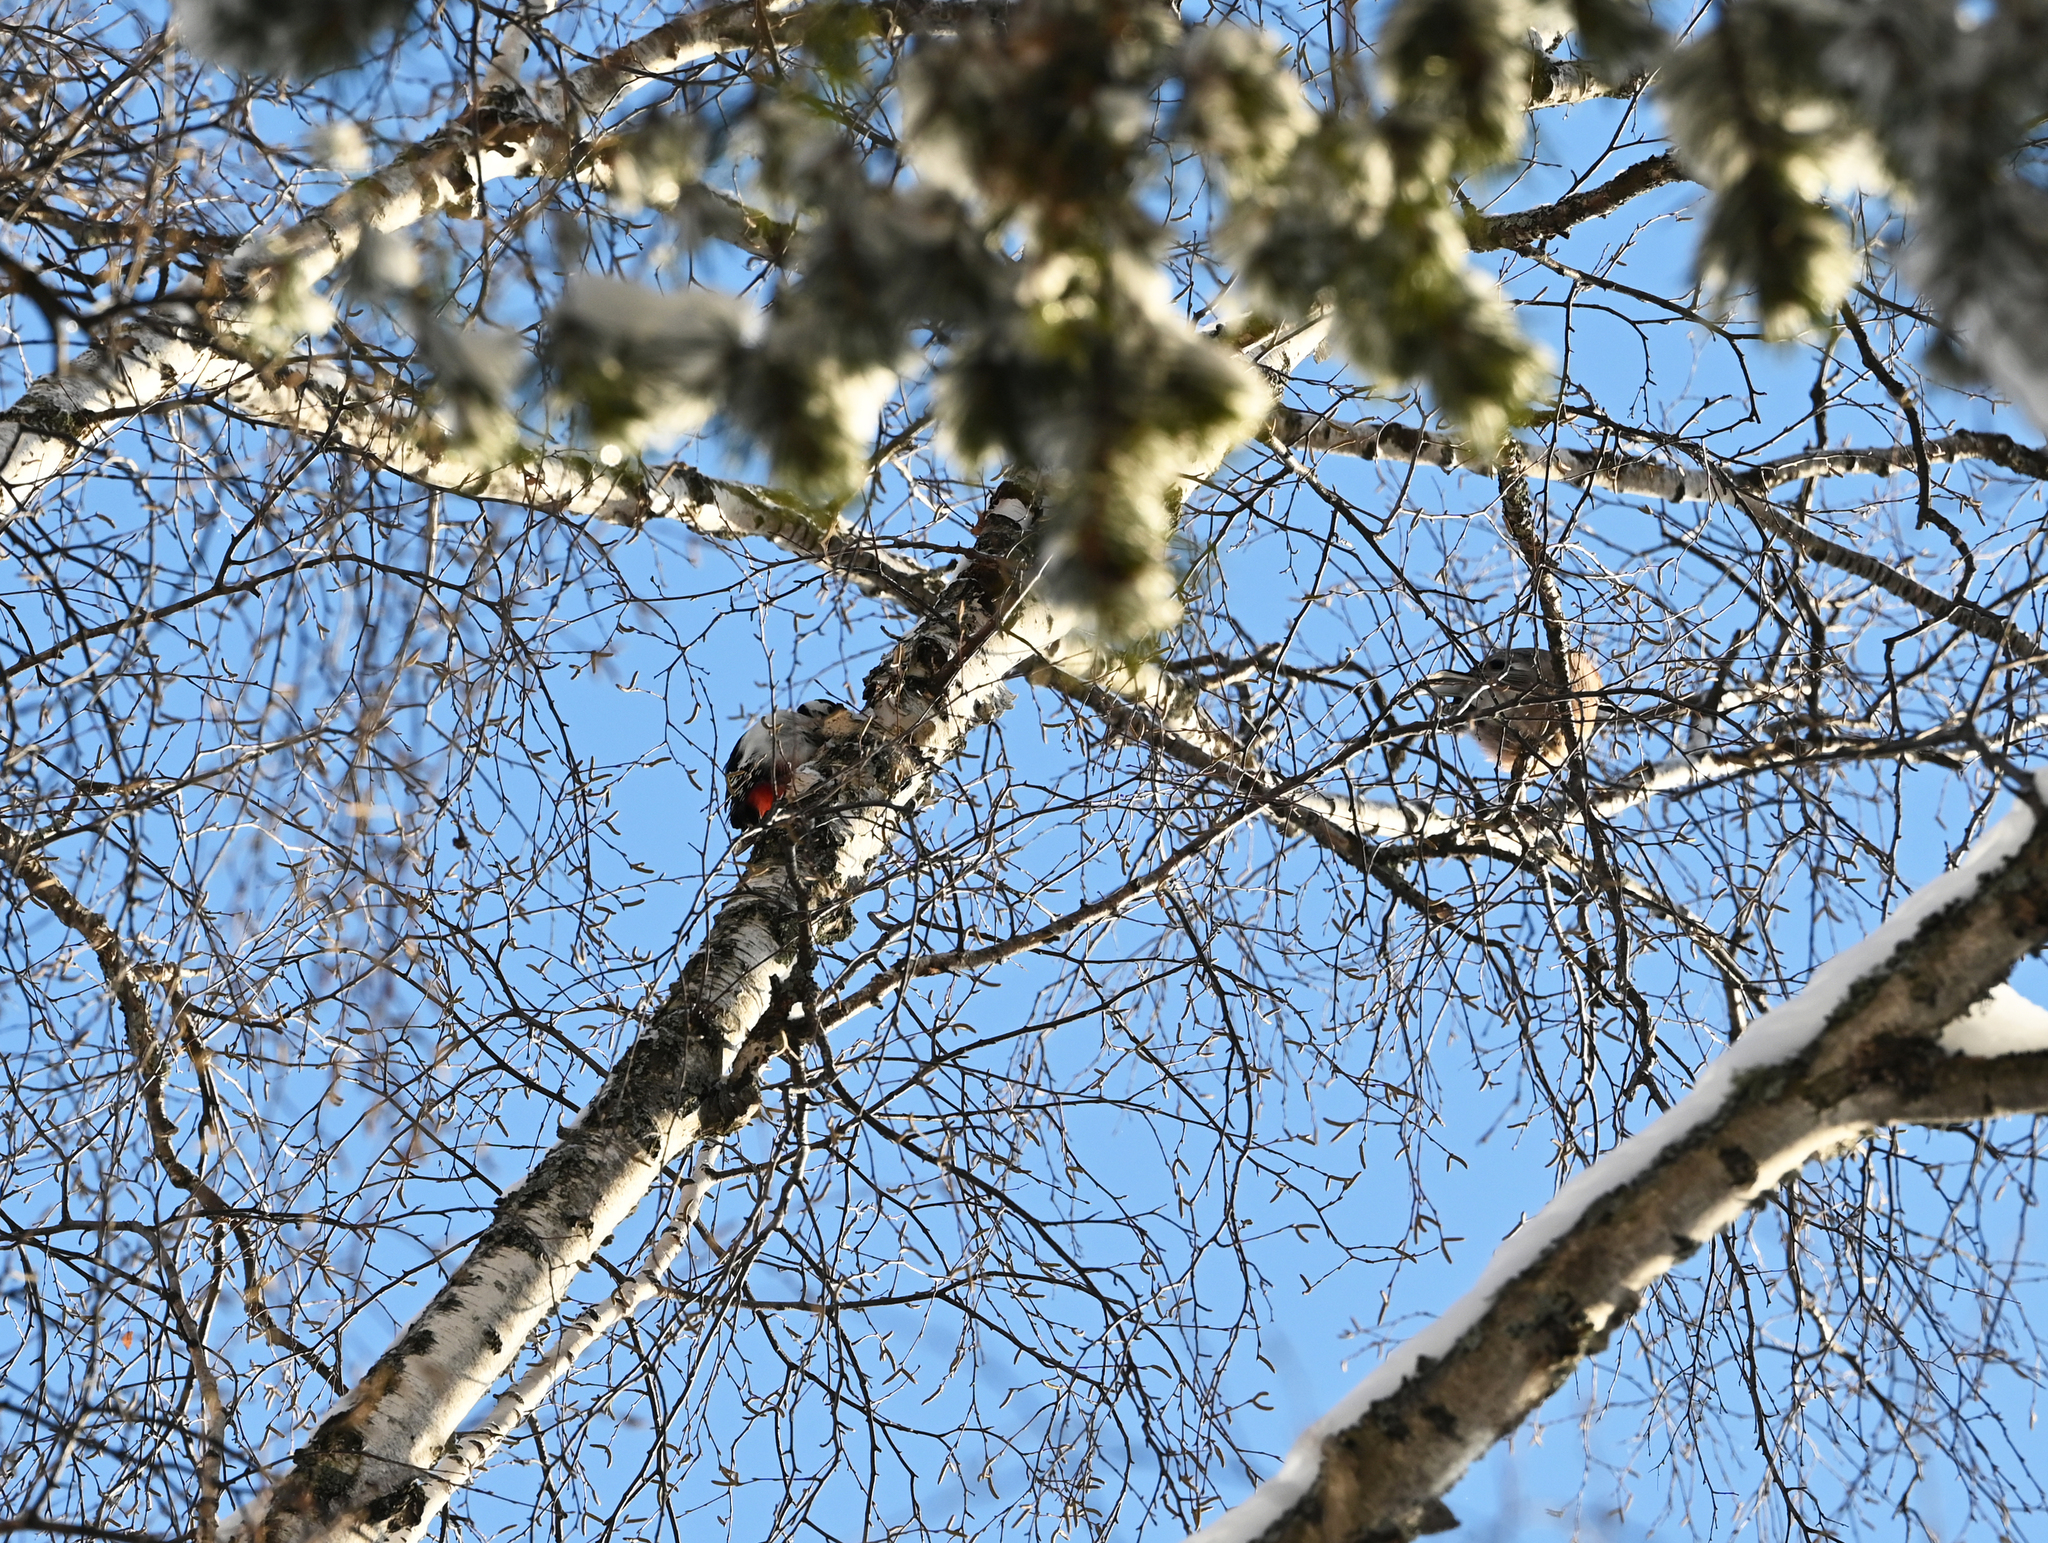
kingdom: Animalia
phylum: Chordata
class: Aves
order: Piciformes
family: Picidae
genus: Dendrocopos
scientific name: Dendrocopos major
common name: Great spotted woodpecker
